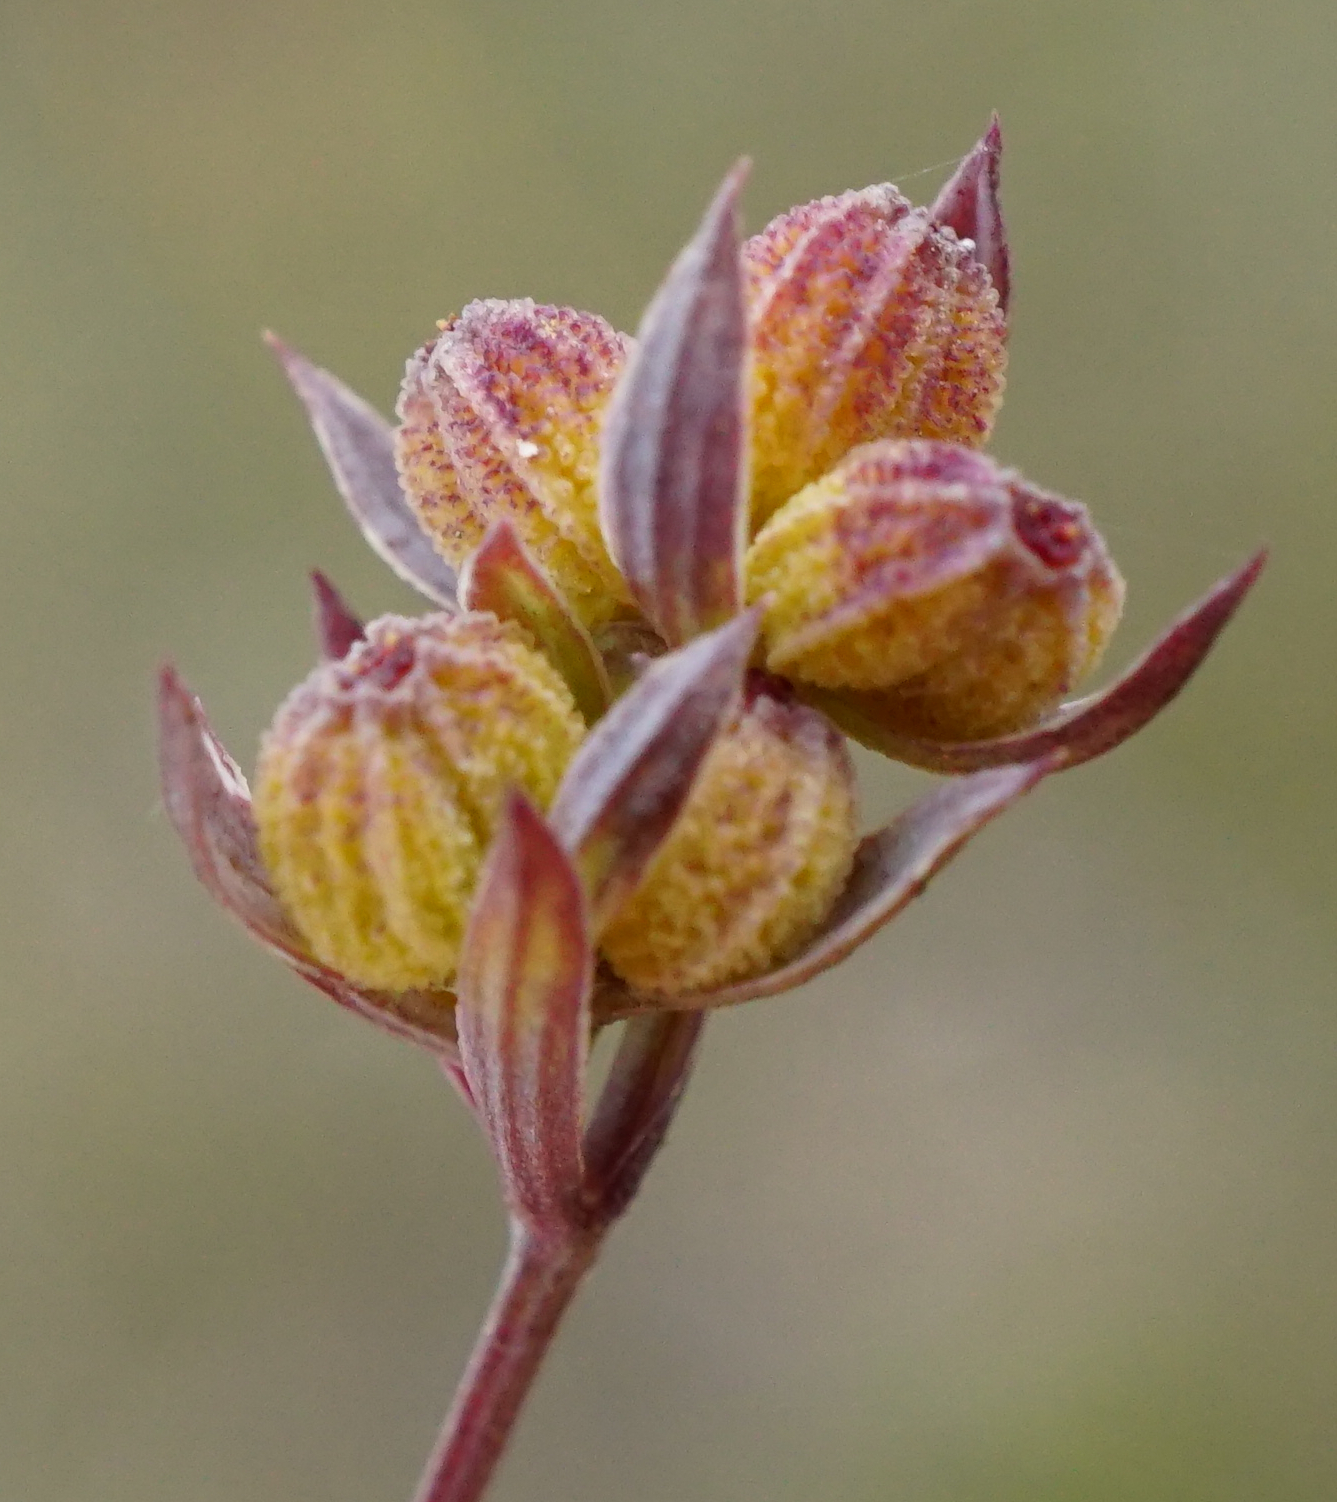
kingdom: Plantae
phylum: Tracheophyta
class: Magnoliopsida
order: Apiales
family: Apiaceae
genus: Bupleurum
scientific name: Bupleurum tenuissimum
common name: Slender hare's-ear
